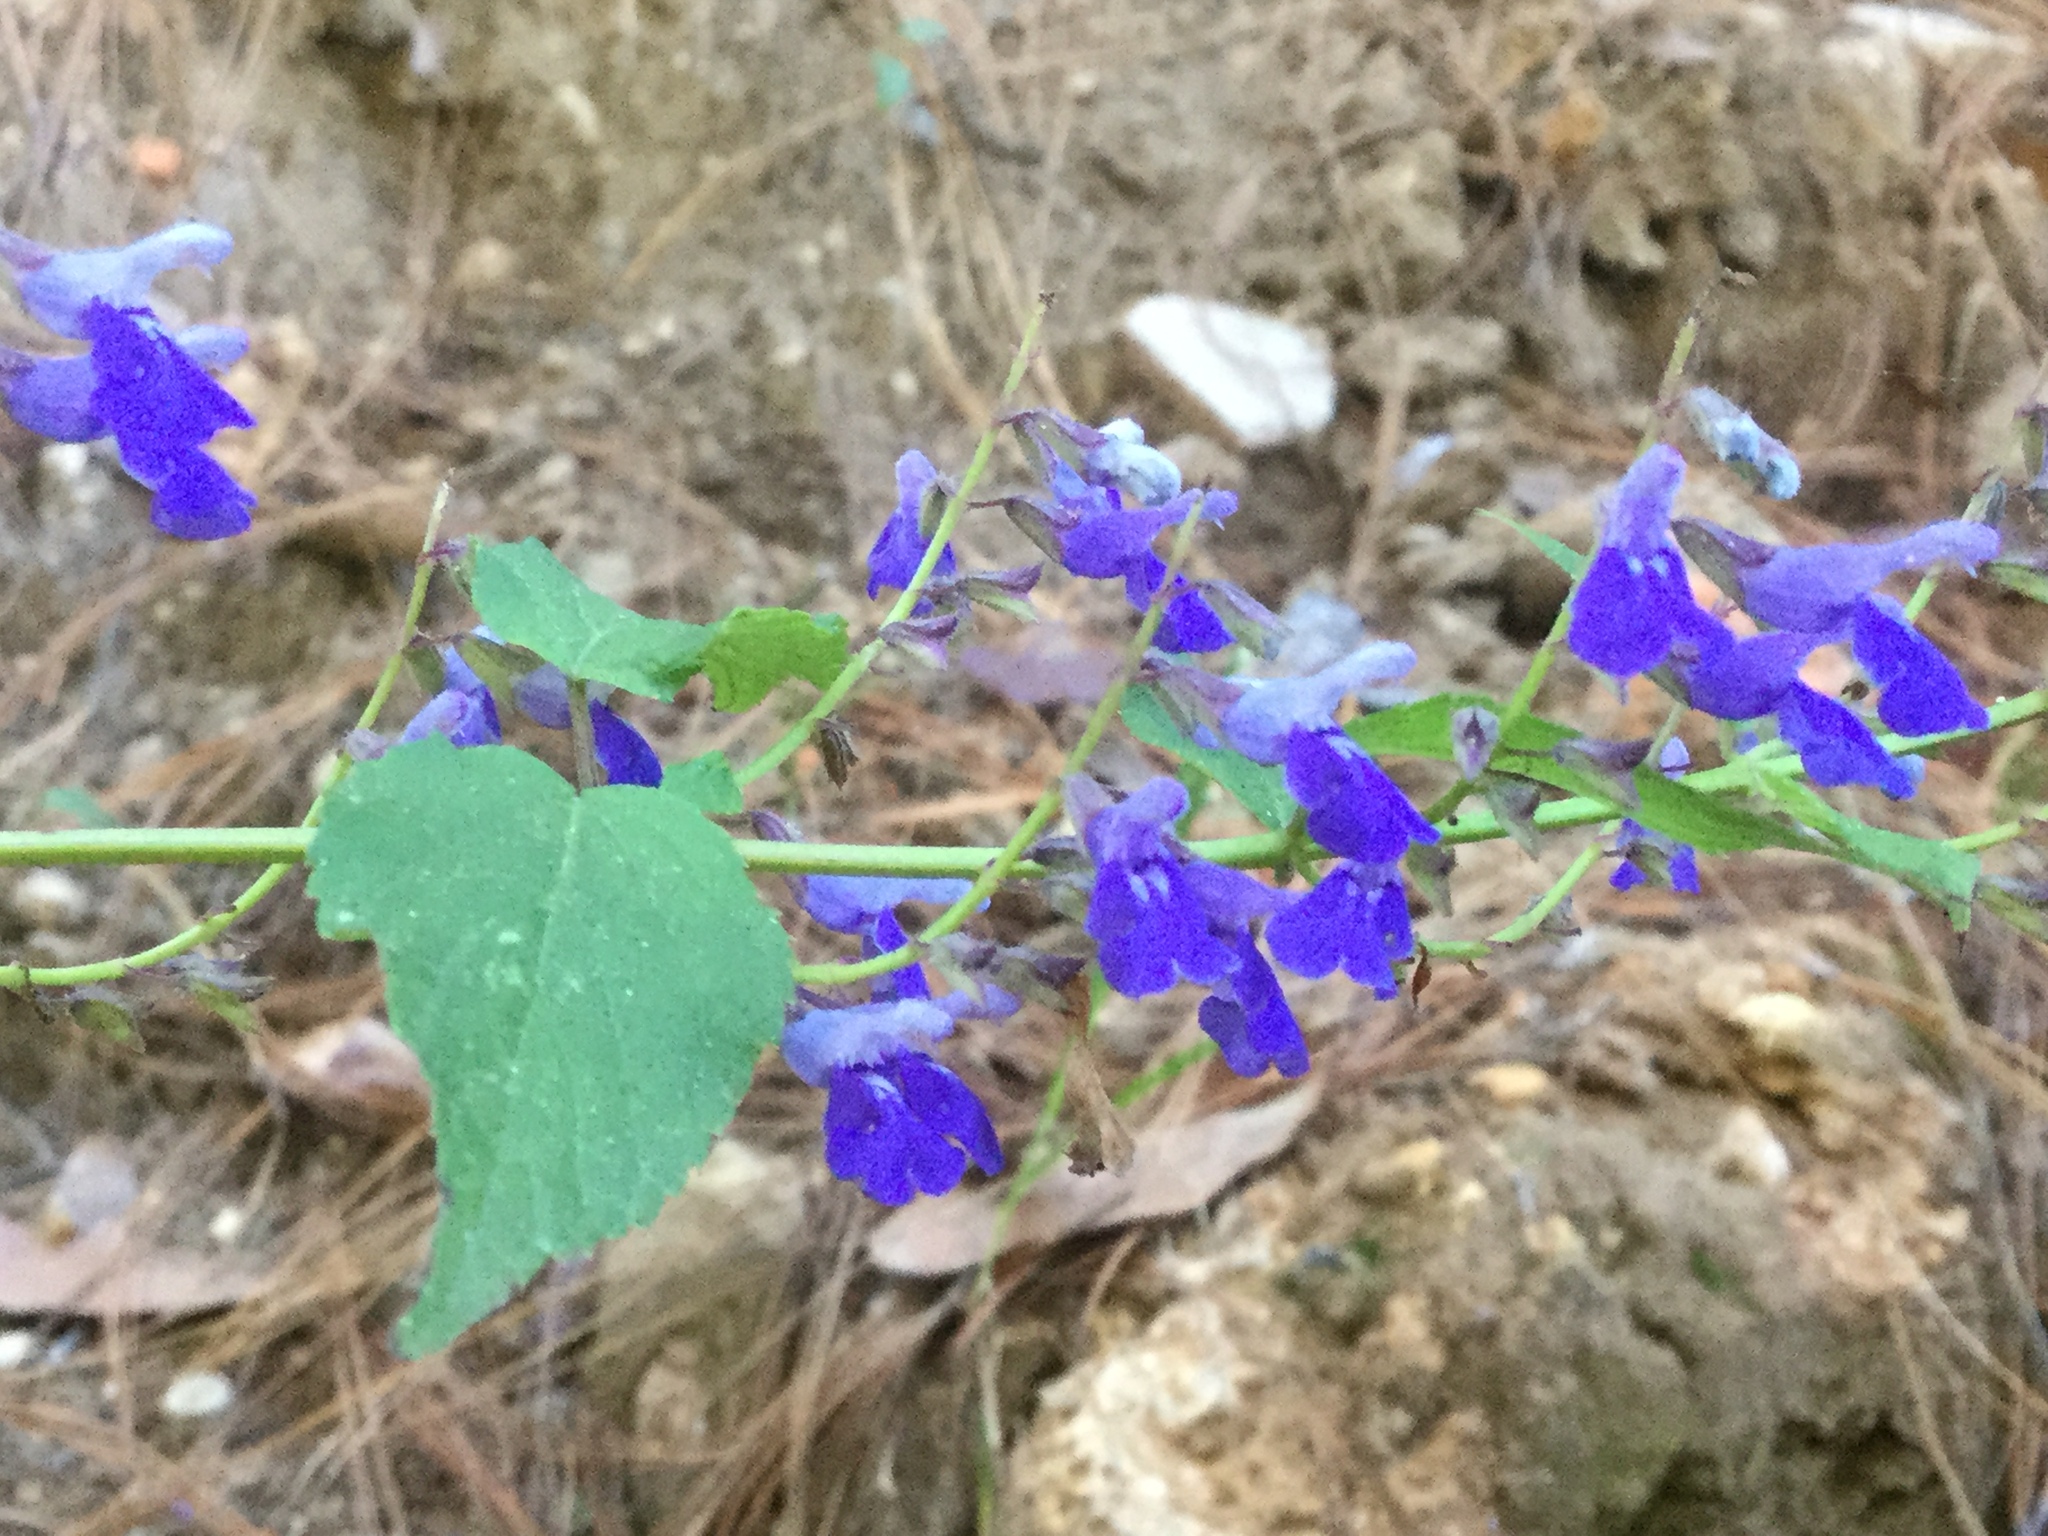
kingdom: Plantae
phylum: Tracheophyta
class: Magnoliopsida
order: Lamiales
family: Lamiaceae
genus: Salvia
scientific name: Salvia plurispicata
